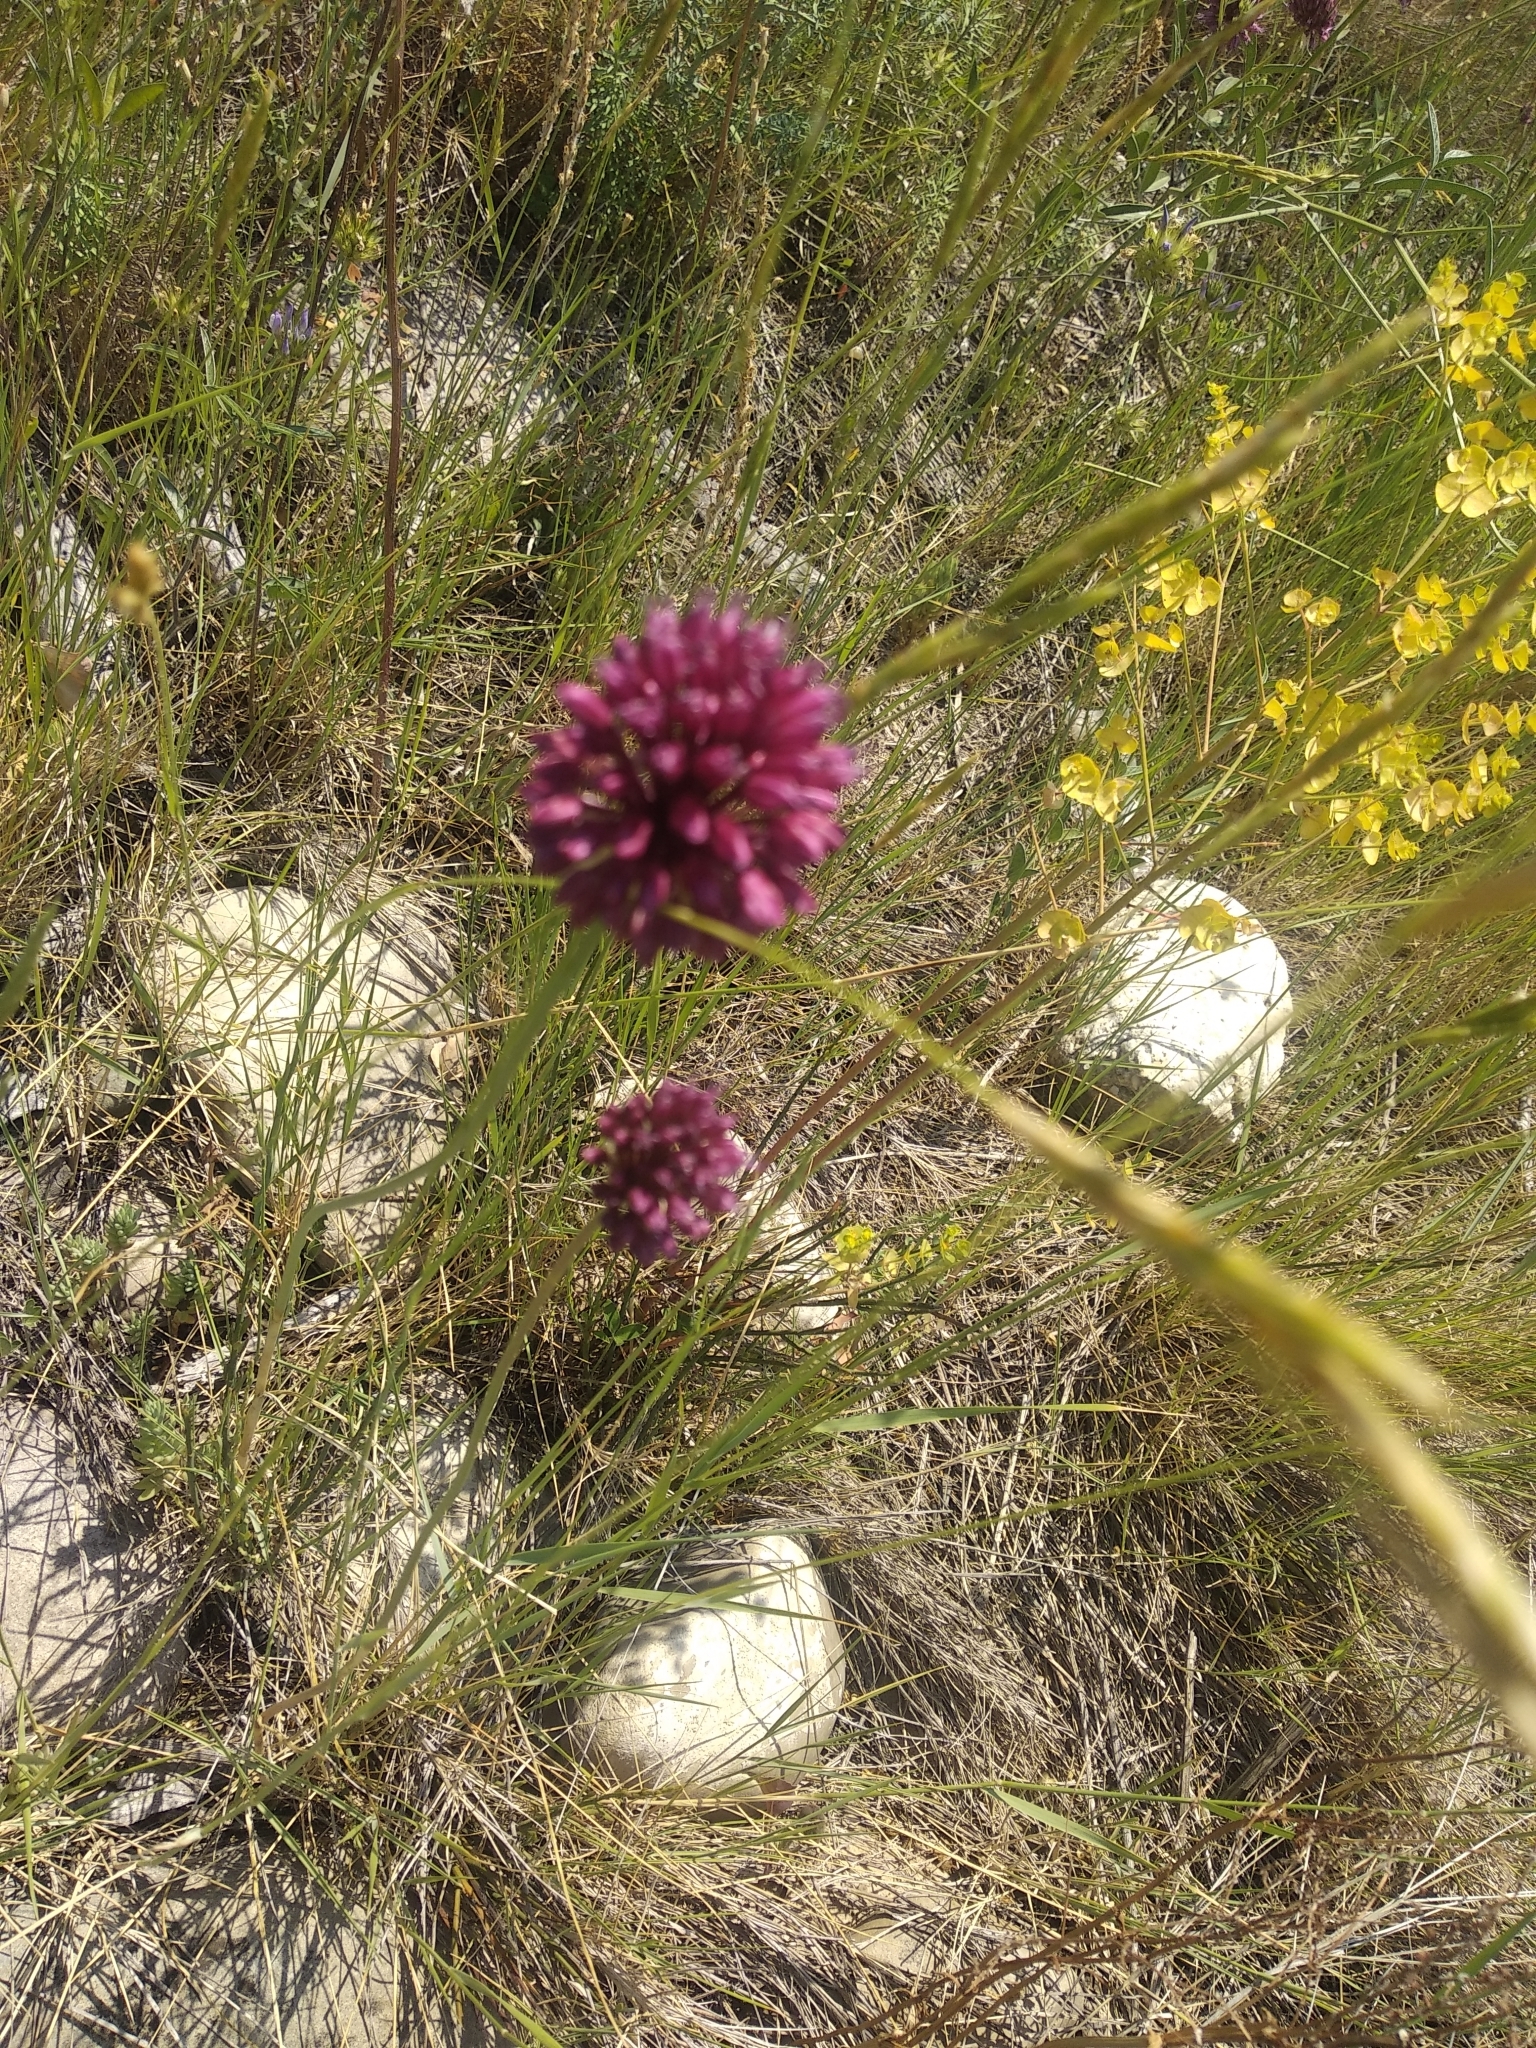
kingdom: Plantae
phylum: Tracheophyta
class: Liliopsida
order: Asparagales
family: Amaryllidaceae
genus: Allium
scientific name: Allium sphaerocephalon
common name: Round-headed leek
